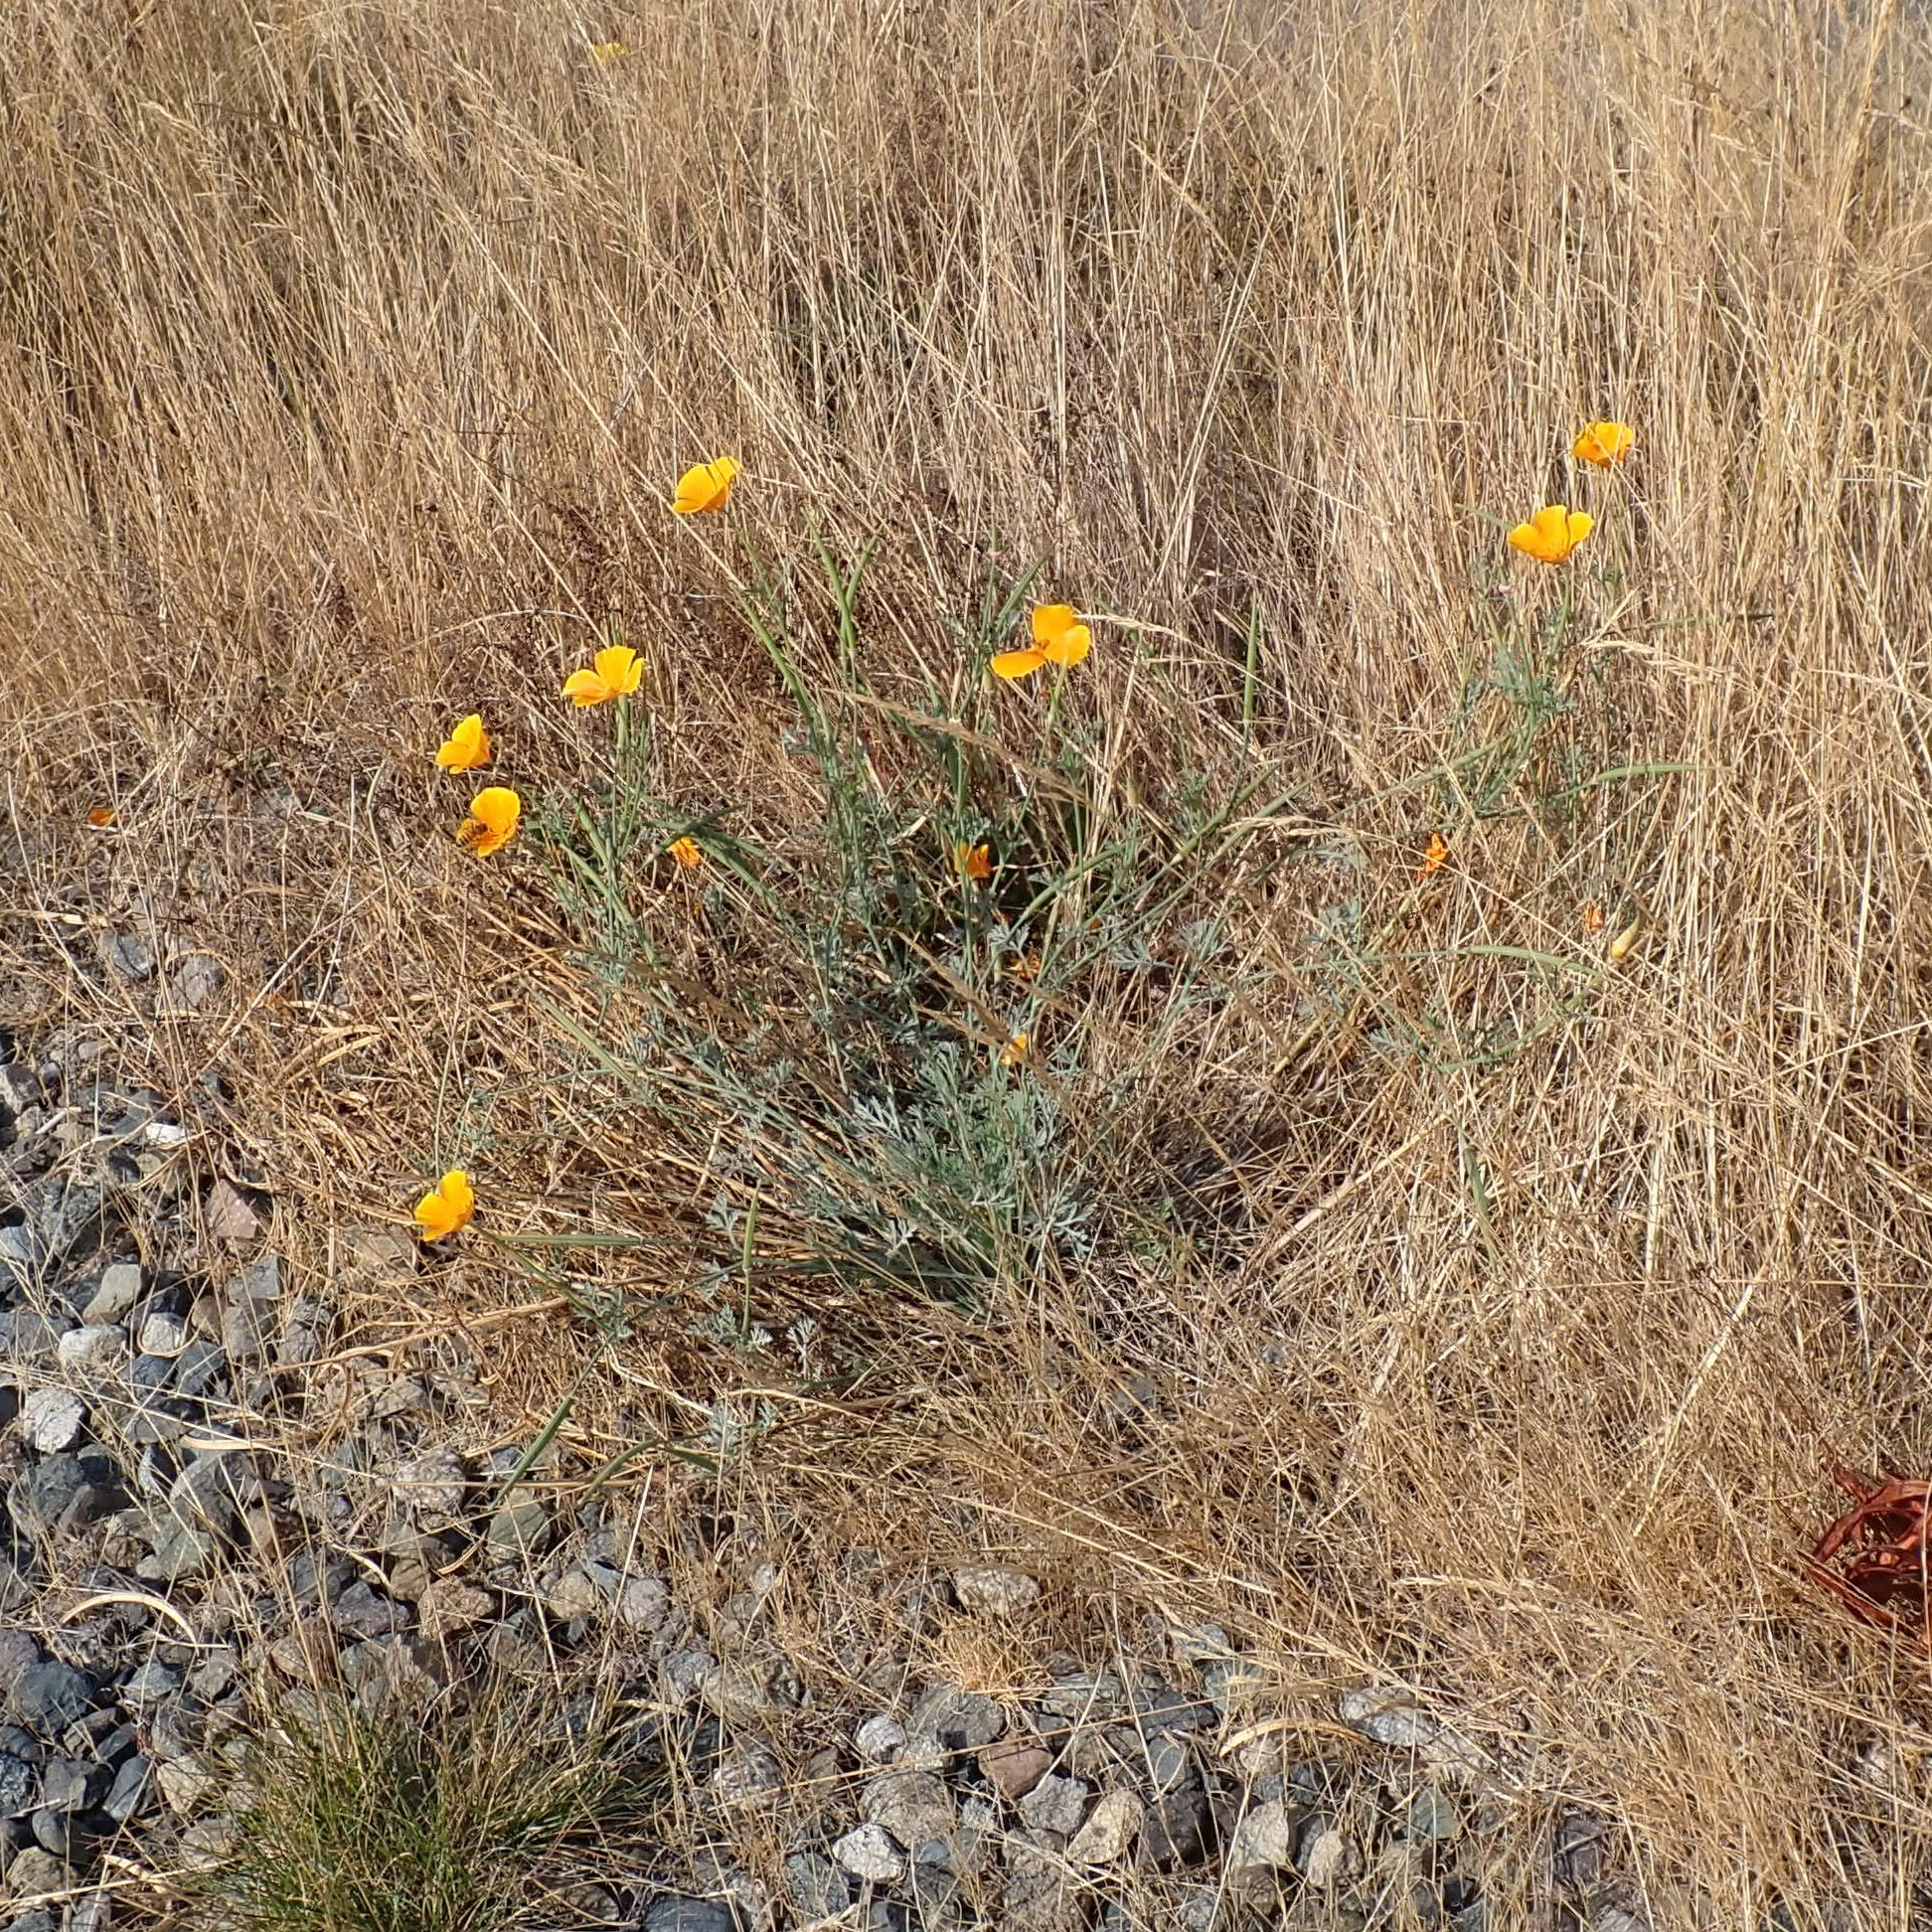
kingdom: Plantae
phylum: Tracheophyta
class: Magnoliopsida
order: Ranunculales
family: Papaveraceae
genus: Eschscholzia
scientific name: Eschscholzia californica
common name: California poppy
